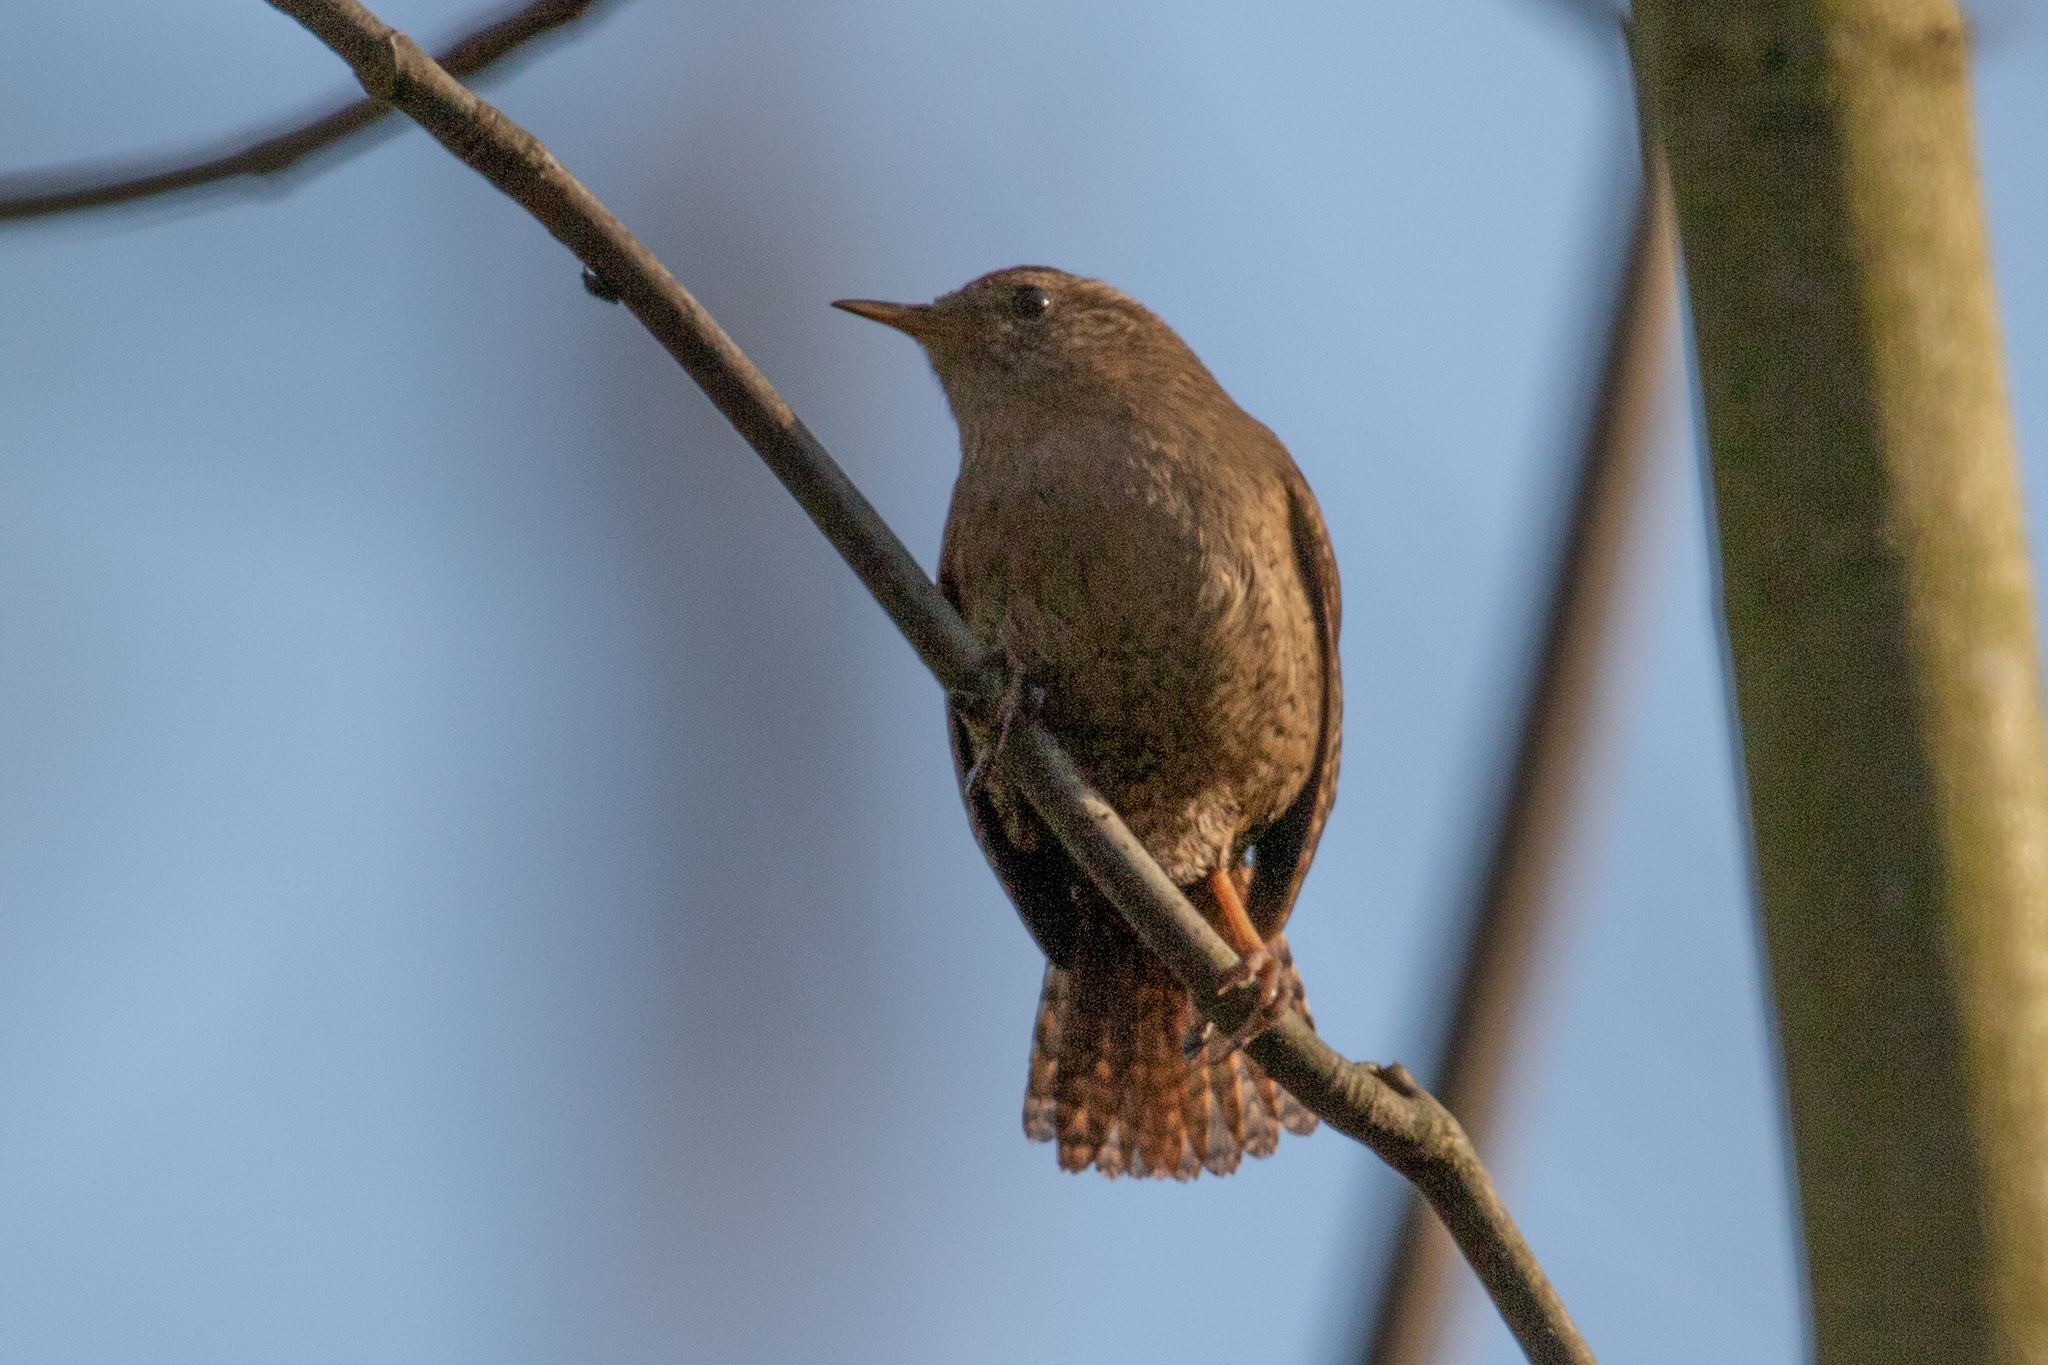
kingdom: Animalia
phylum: Chordata
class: Aves
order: Passeriformes
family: Troglodytidae
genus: Troglodytes
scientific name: Troglodytes troglodytes
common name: Eurasian wren
